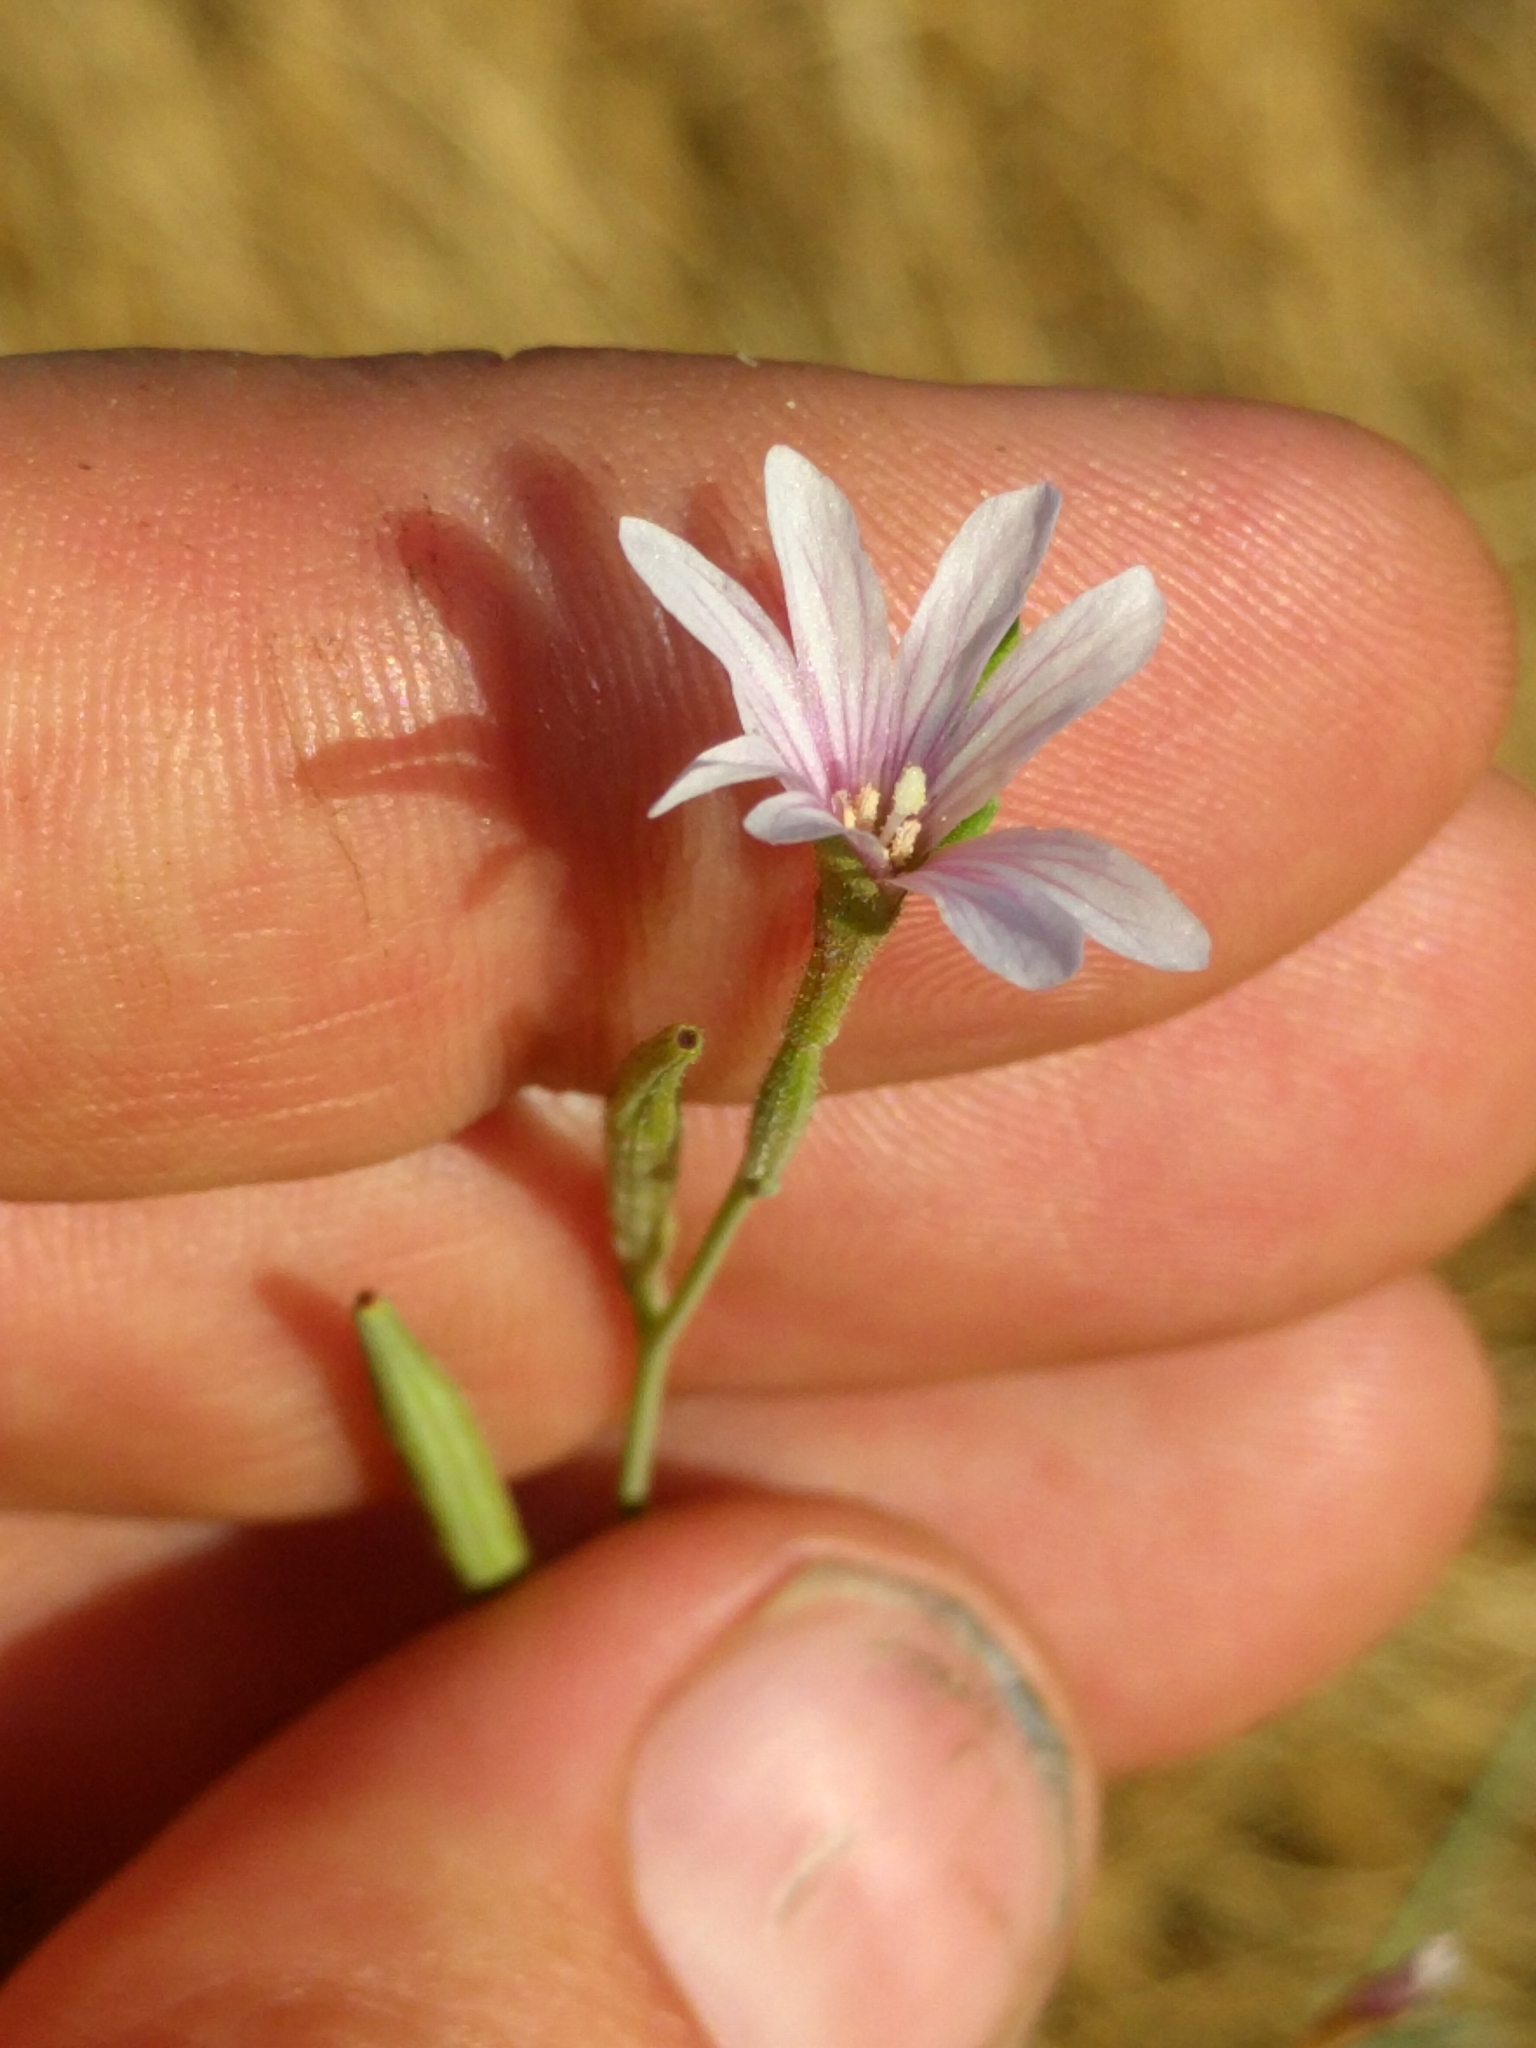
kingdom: Plantae
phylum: Tracheophyta
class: Magnoliopsida
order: Myrtales
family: Onagraceae
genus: Epilobium
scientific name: Epilobium brachycarpum
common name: Annual willowherb
